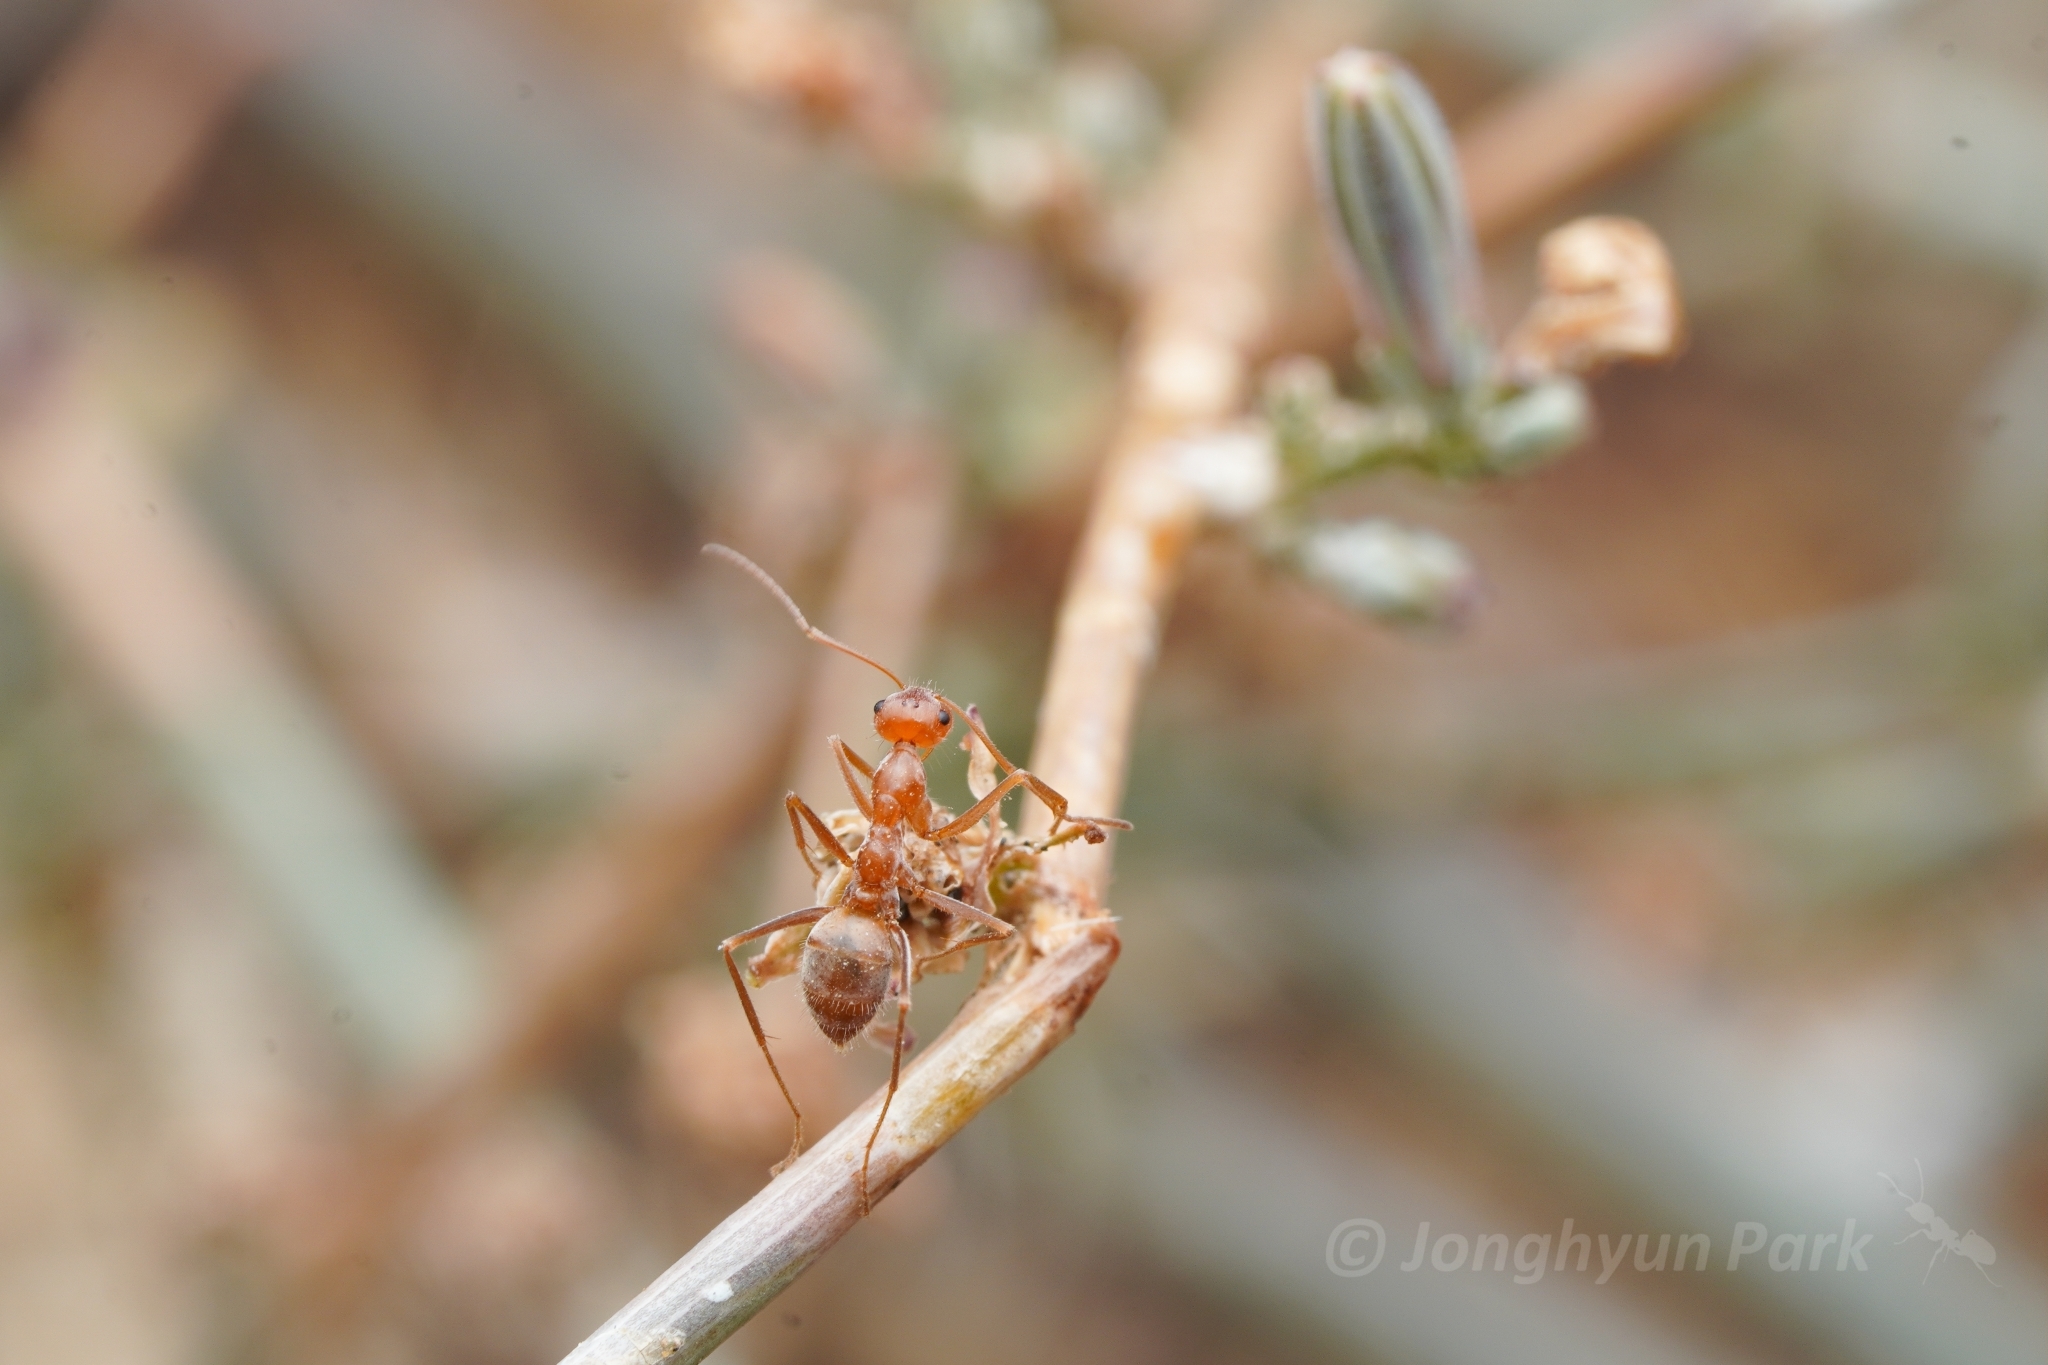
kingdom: Animalia
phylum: Arthropoda
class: Insecta
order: Hymenoptera
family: Formicidae
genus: Myrmecocystus
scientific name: Myrmecocystus wheeleri
